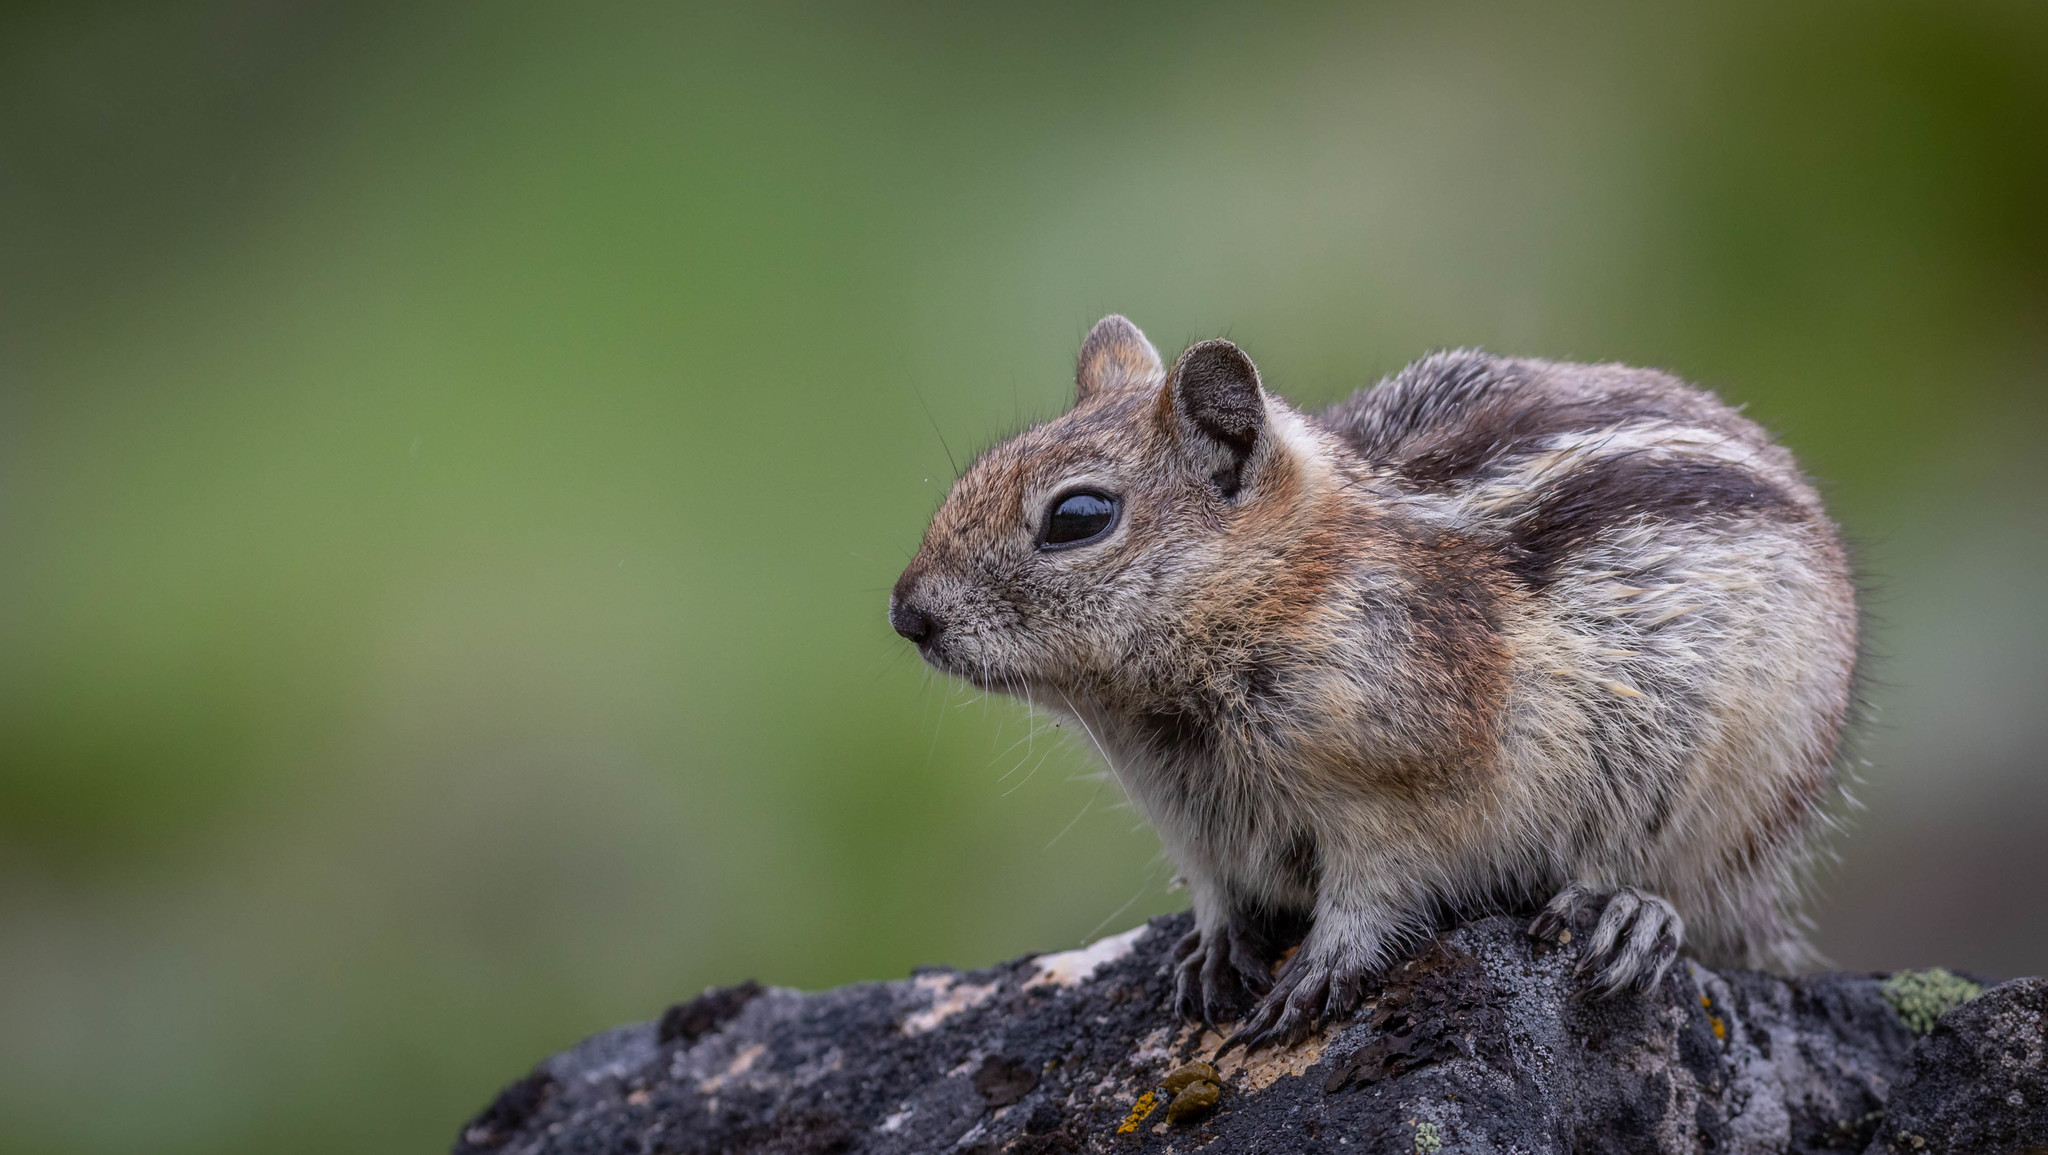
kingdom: Animalia
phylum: Chordata
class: Mammalia
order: Rodentia
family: Sciuridae
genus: Callospermophilus
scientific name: Callospermophilus lateralis
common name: Golden-mantled ground squirrel
